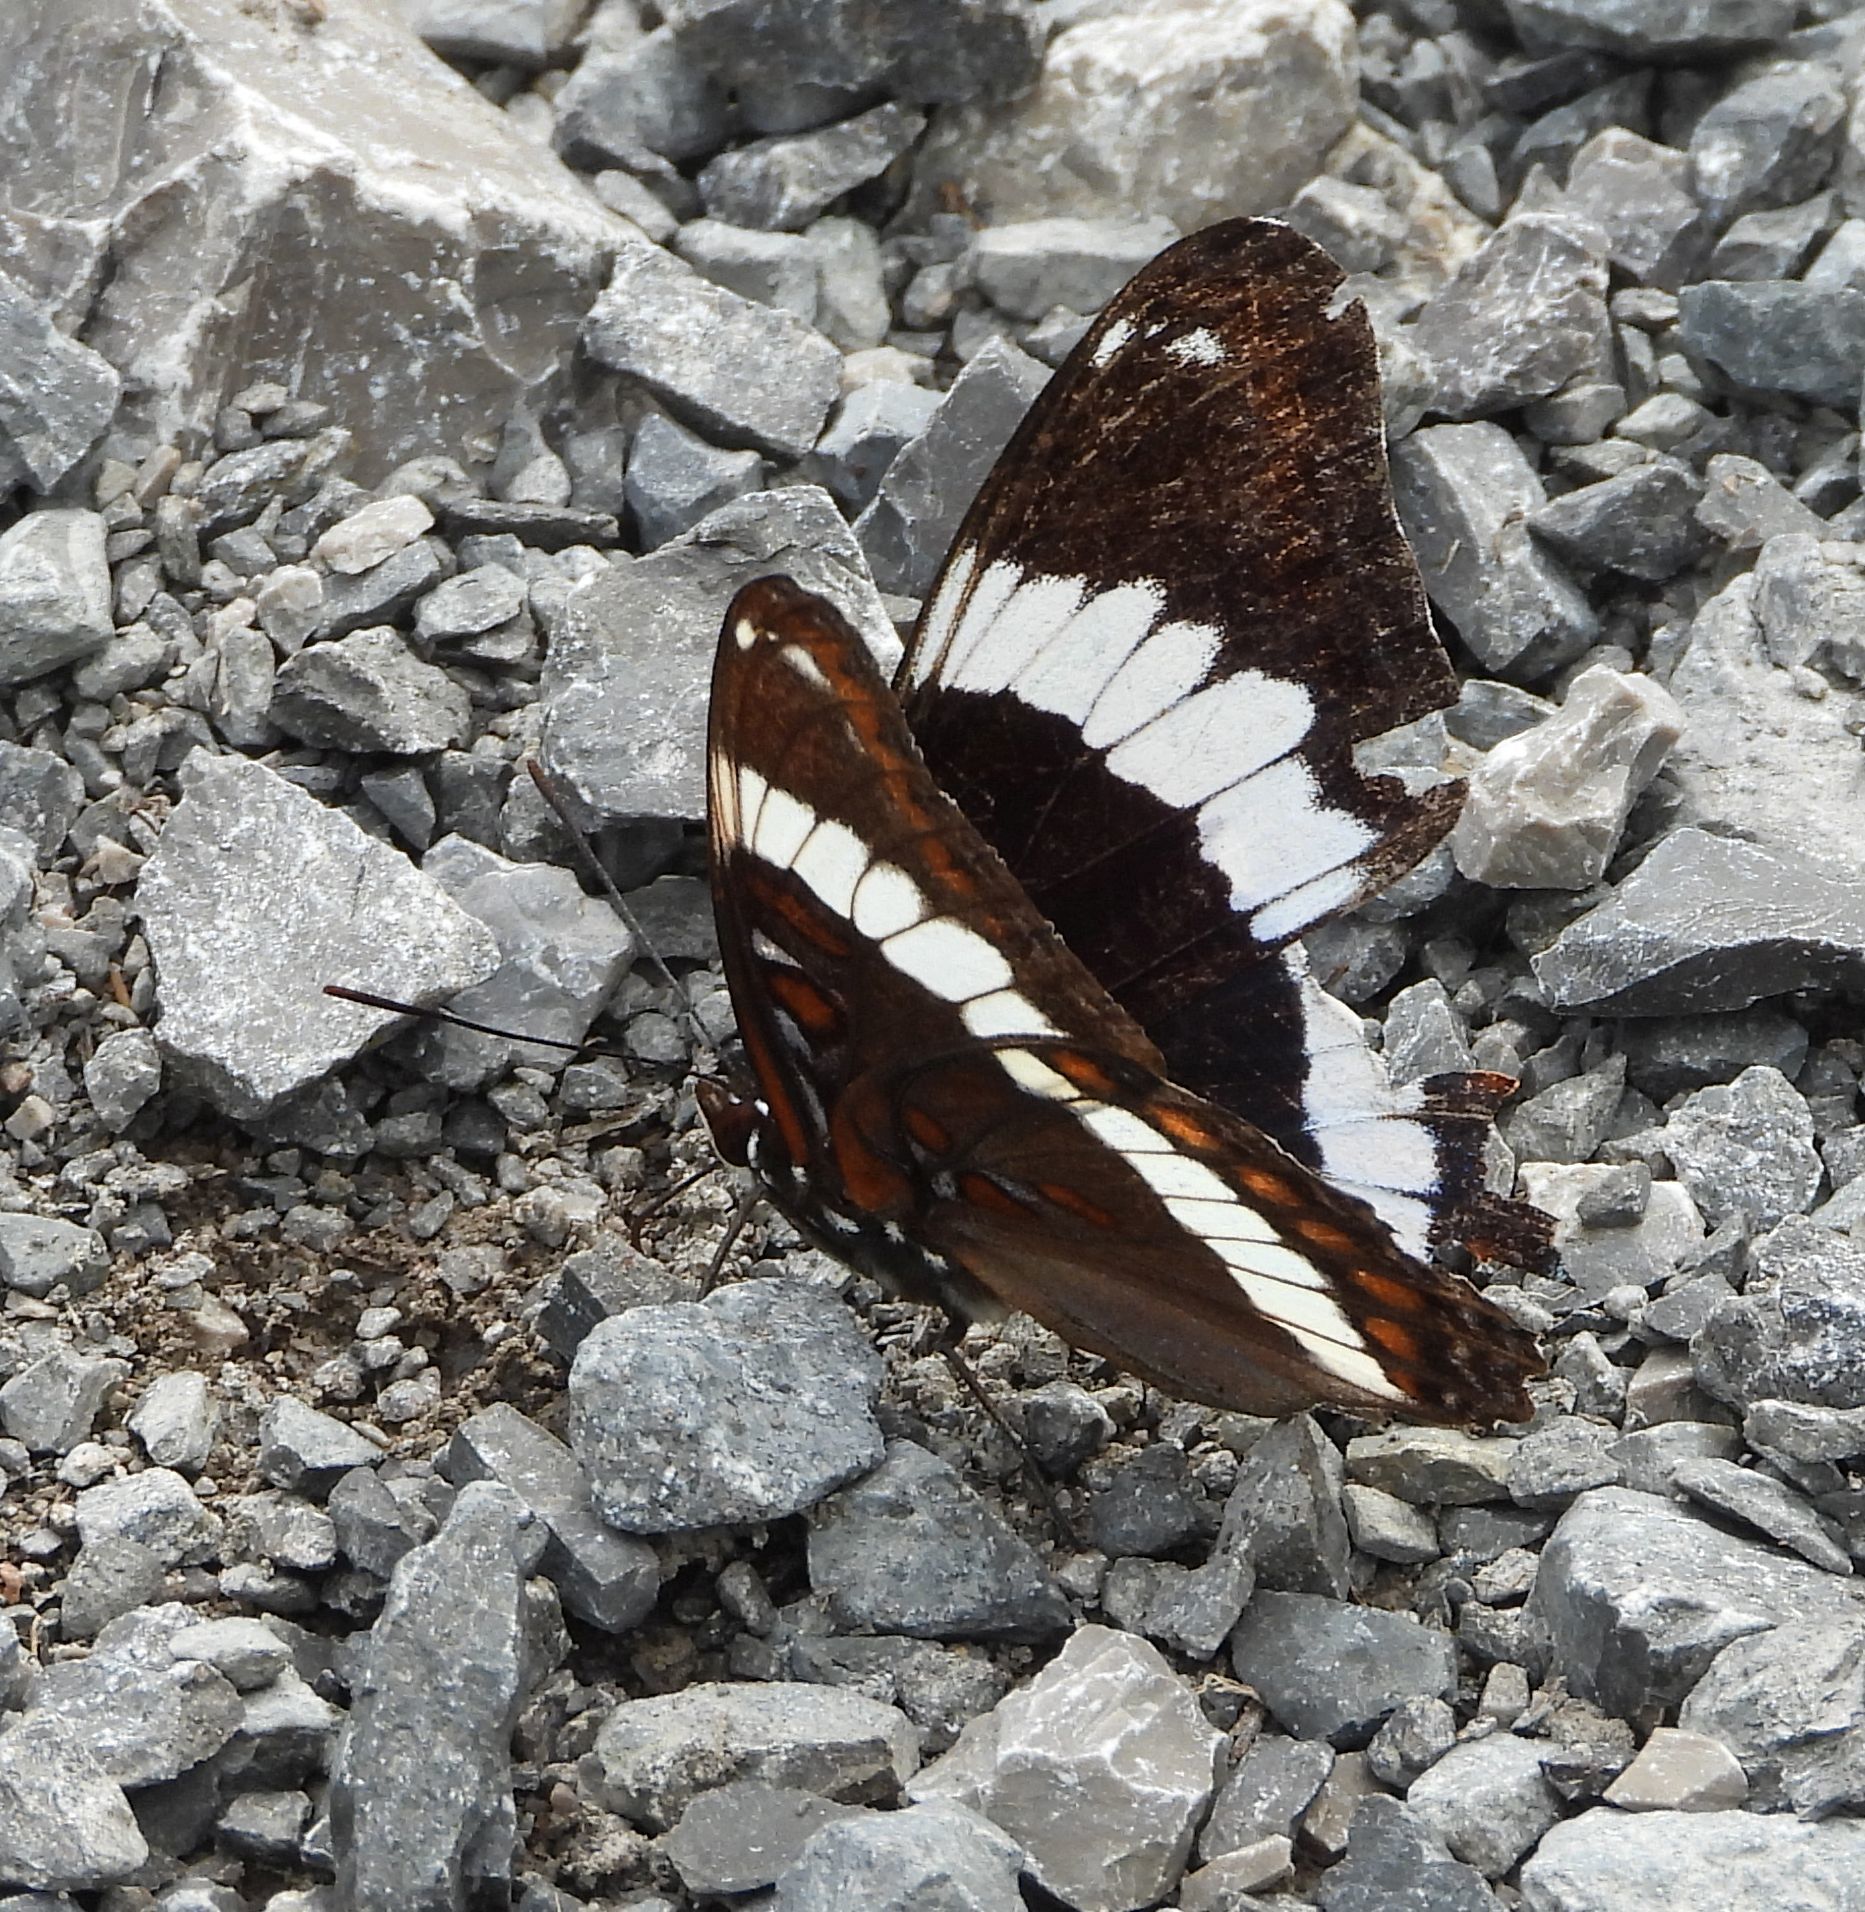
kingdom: Animalia
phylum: Arthropoda
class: Insecta
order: Lepidoptera
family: Nymphalidae
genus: Limenitis
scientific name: Limenitis arthemis
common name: Red-spotted admiral
